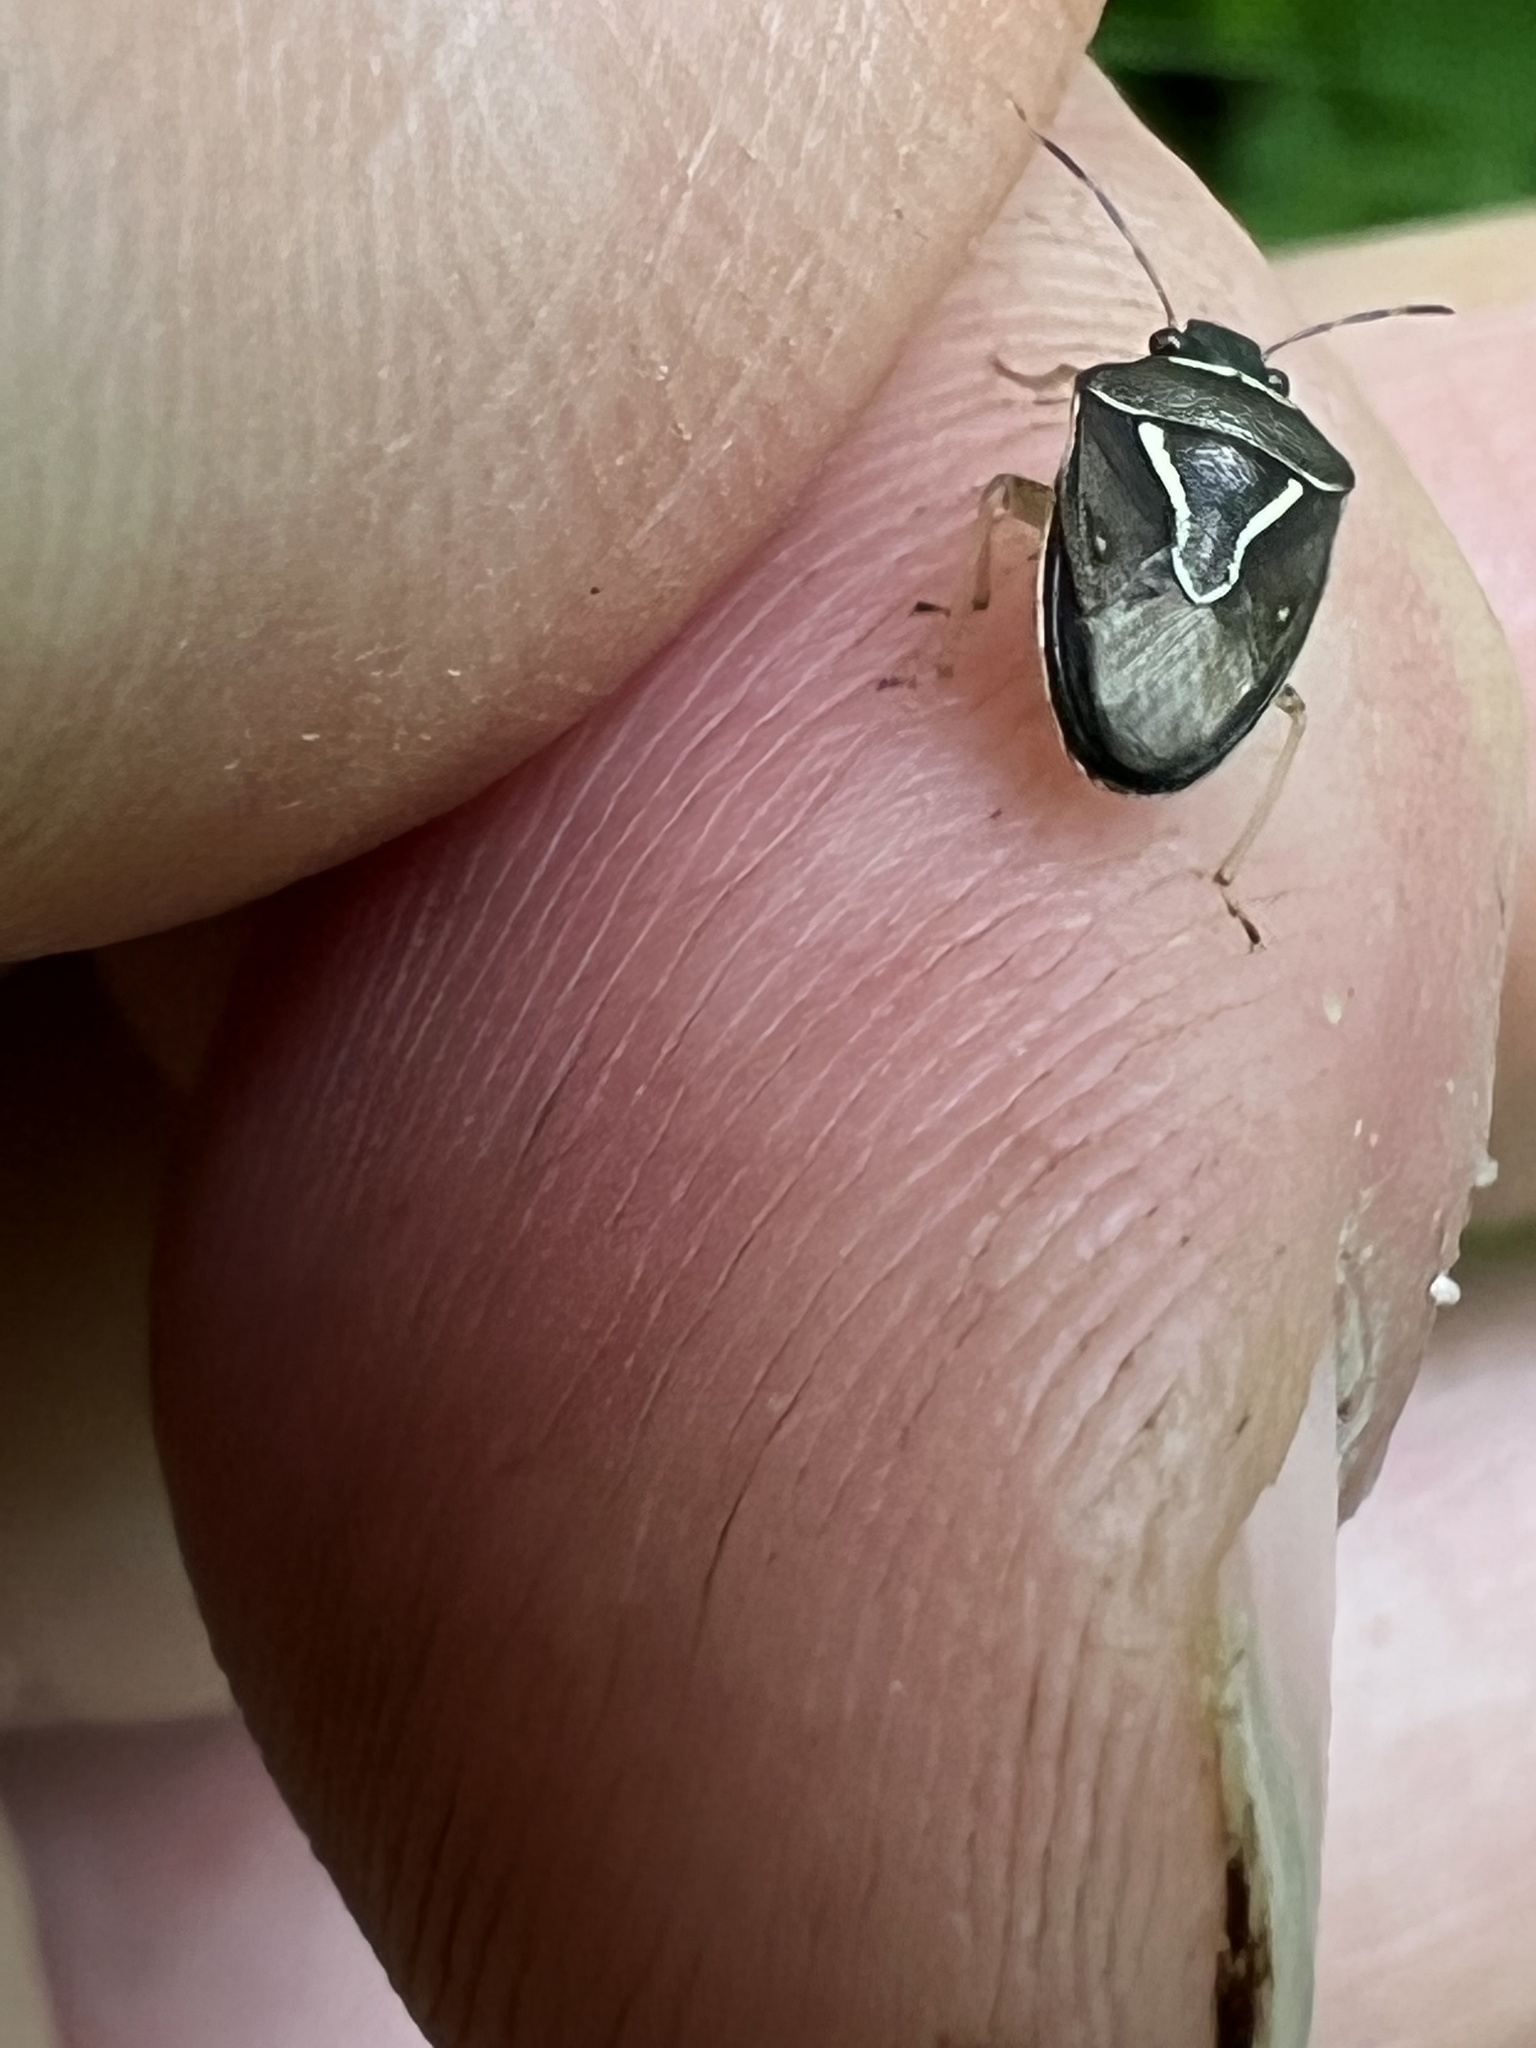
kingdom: Animalia
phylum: Arthropoda
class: Insecta
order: Hemiptera
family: Pentatomidae
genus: Mormidea
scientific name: Mormidea lugens
